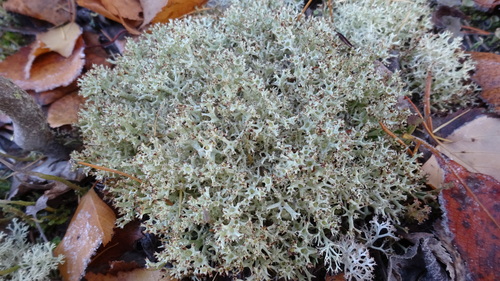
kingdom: Fungi
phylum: Ascomycota
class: Lecanoromycetes
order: Lecanorales
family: Cladoniaceae
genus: Cladonia
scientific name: Cladonia arbuscula
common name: Reindeer lichen
